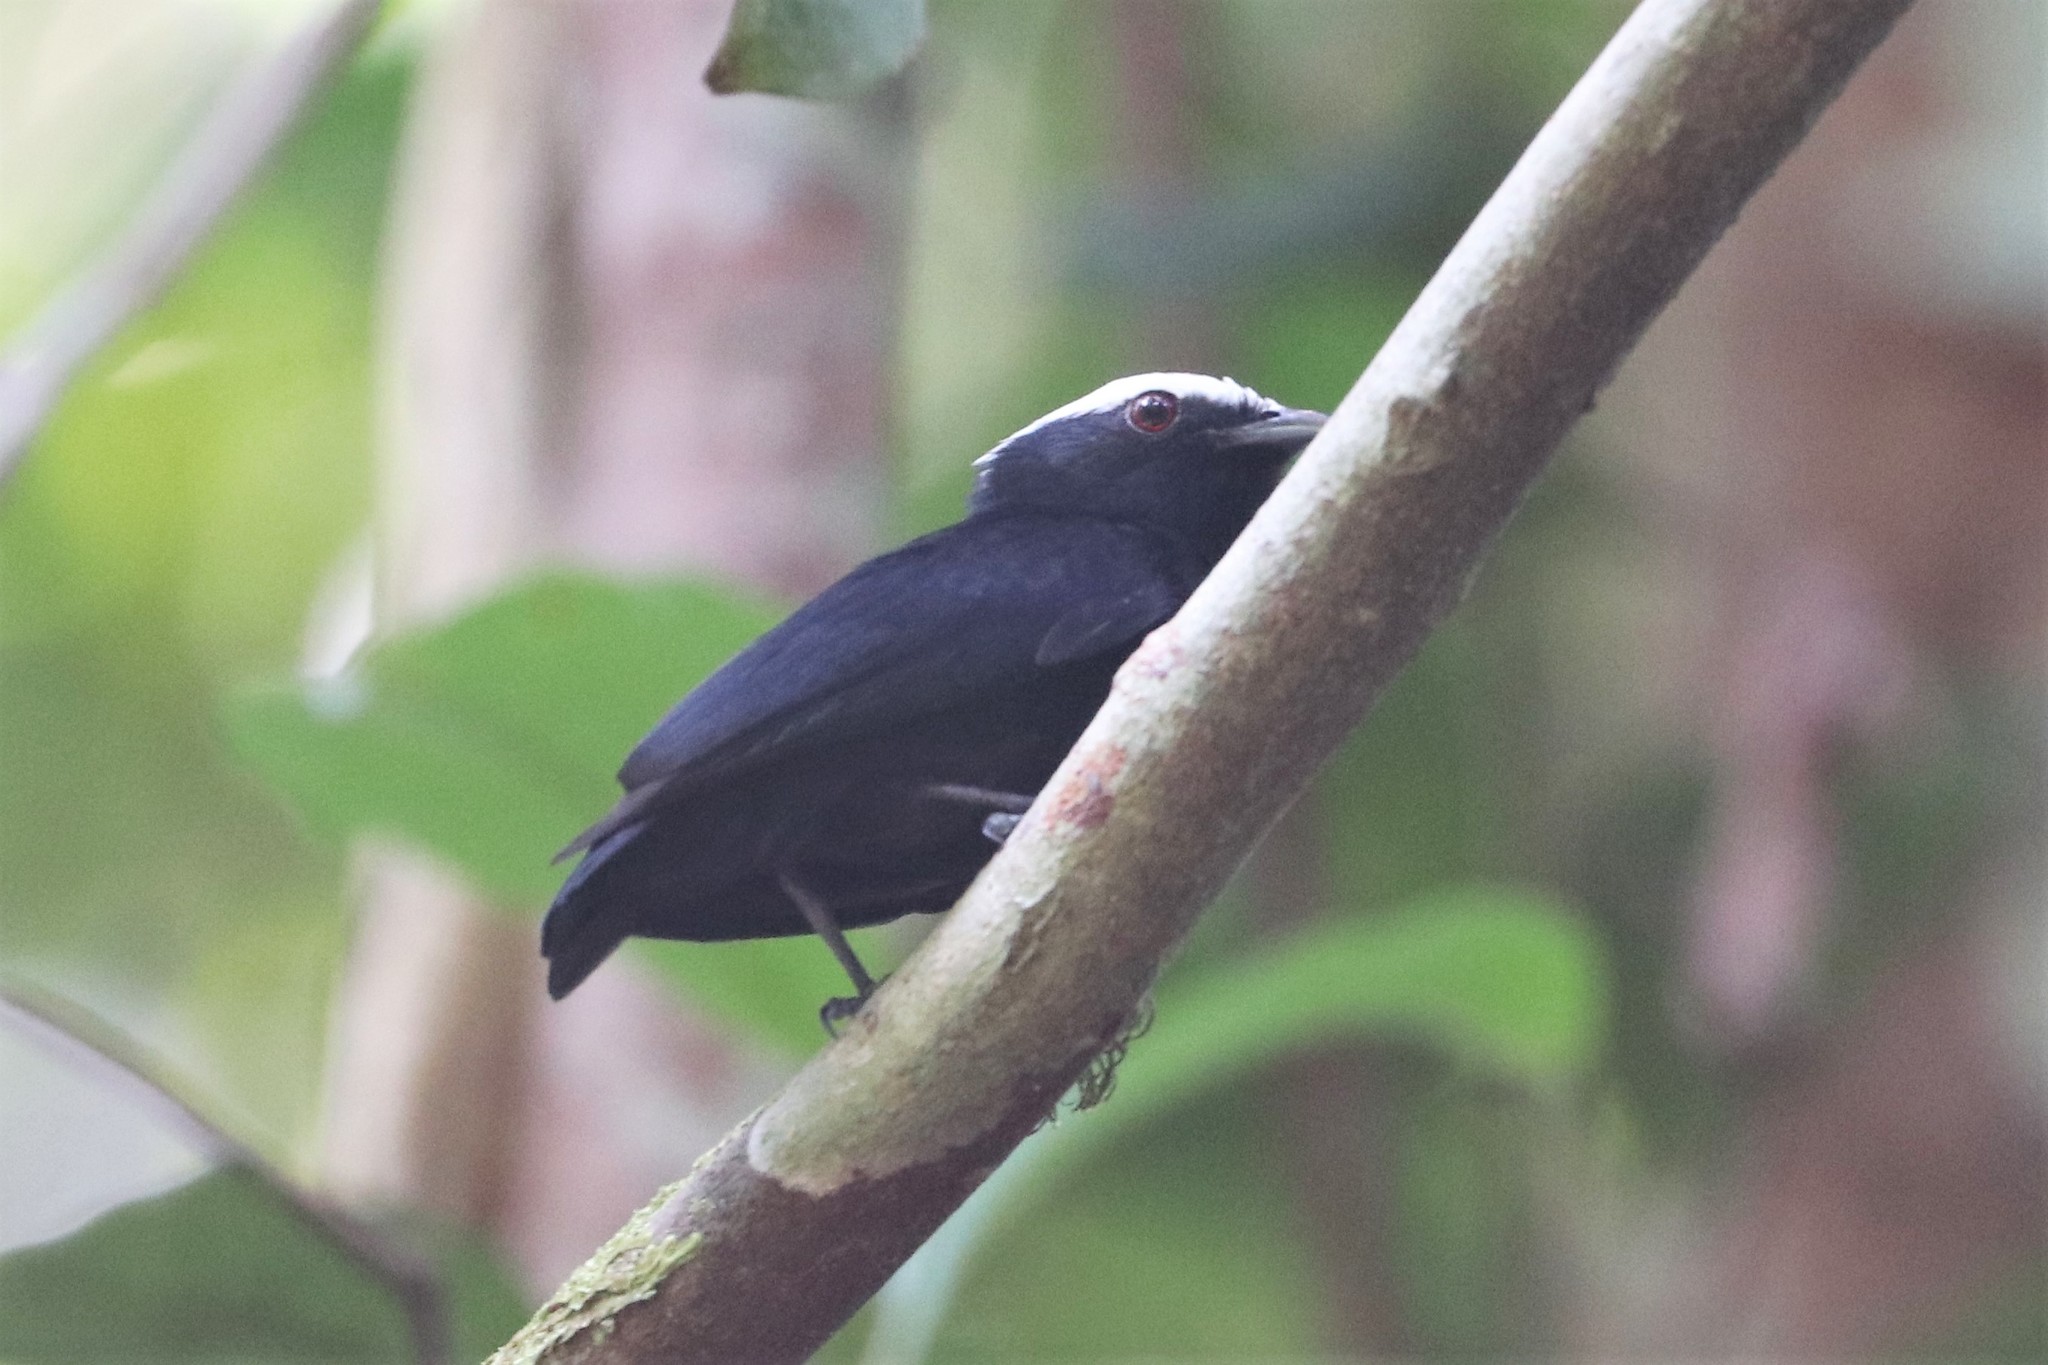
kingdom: Animalia
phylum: Chordata
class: Aves
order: Passeriformes
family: Pipridae
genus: Pipra
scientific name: Pipra pipra
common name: White-crowned manakin
